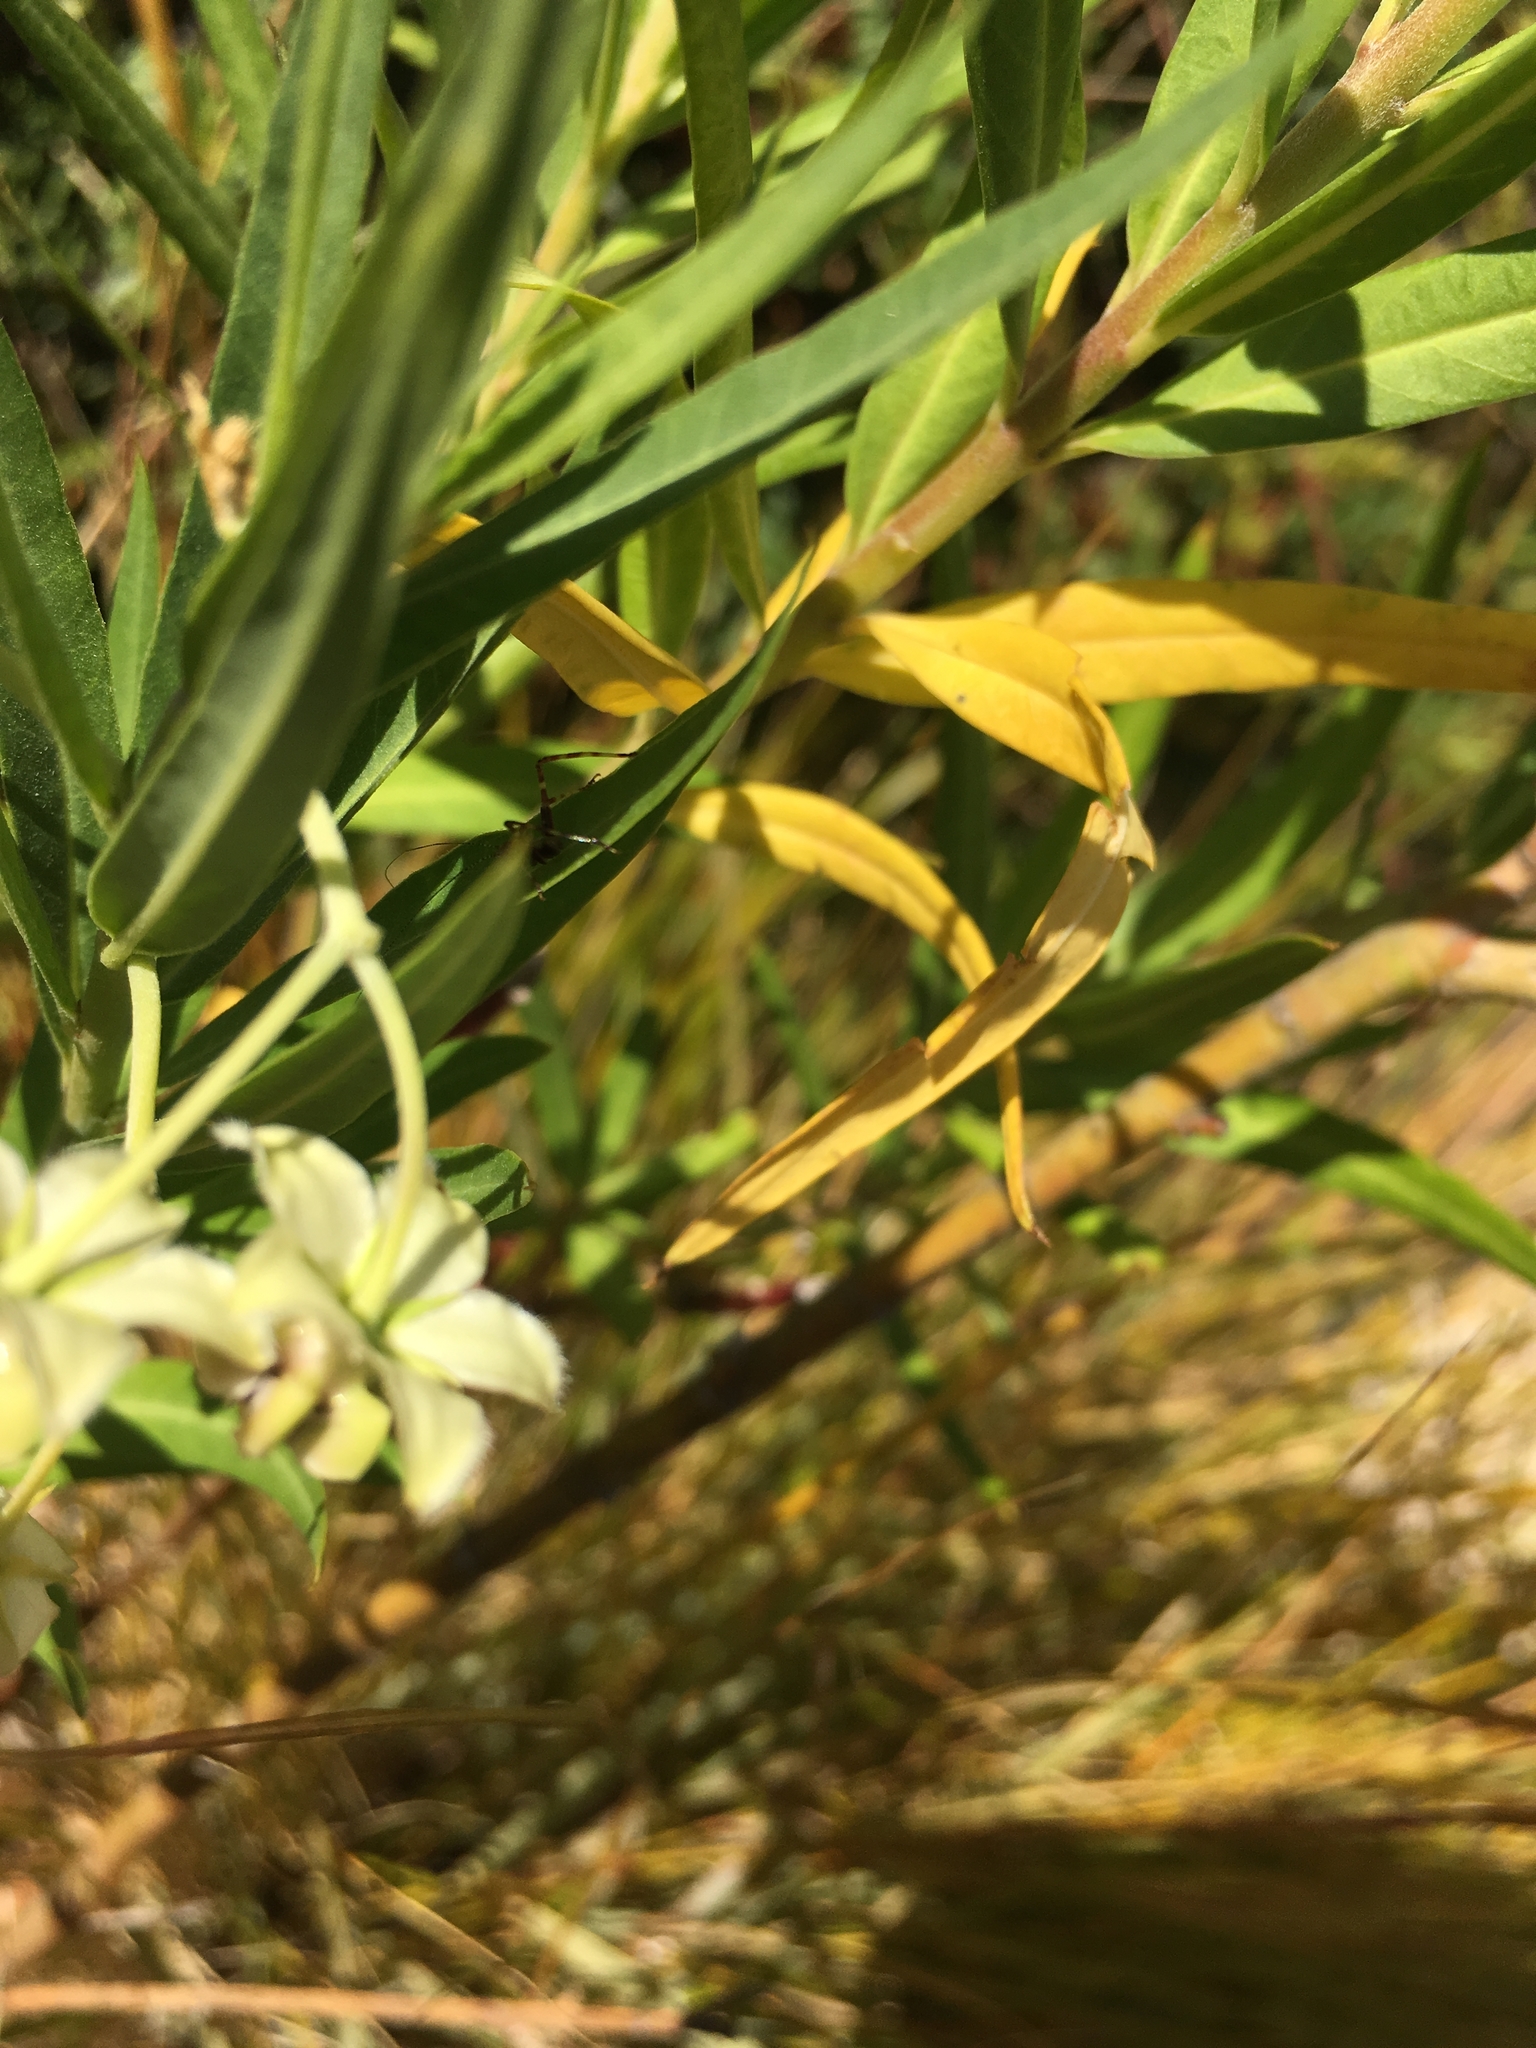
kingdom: Animalia
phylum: Arthropoda
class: Insecta
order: Orthoptera
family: Tettigoniidae
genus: Caedicia
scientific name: Caedicia simplex
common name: Common garden katydid
